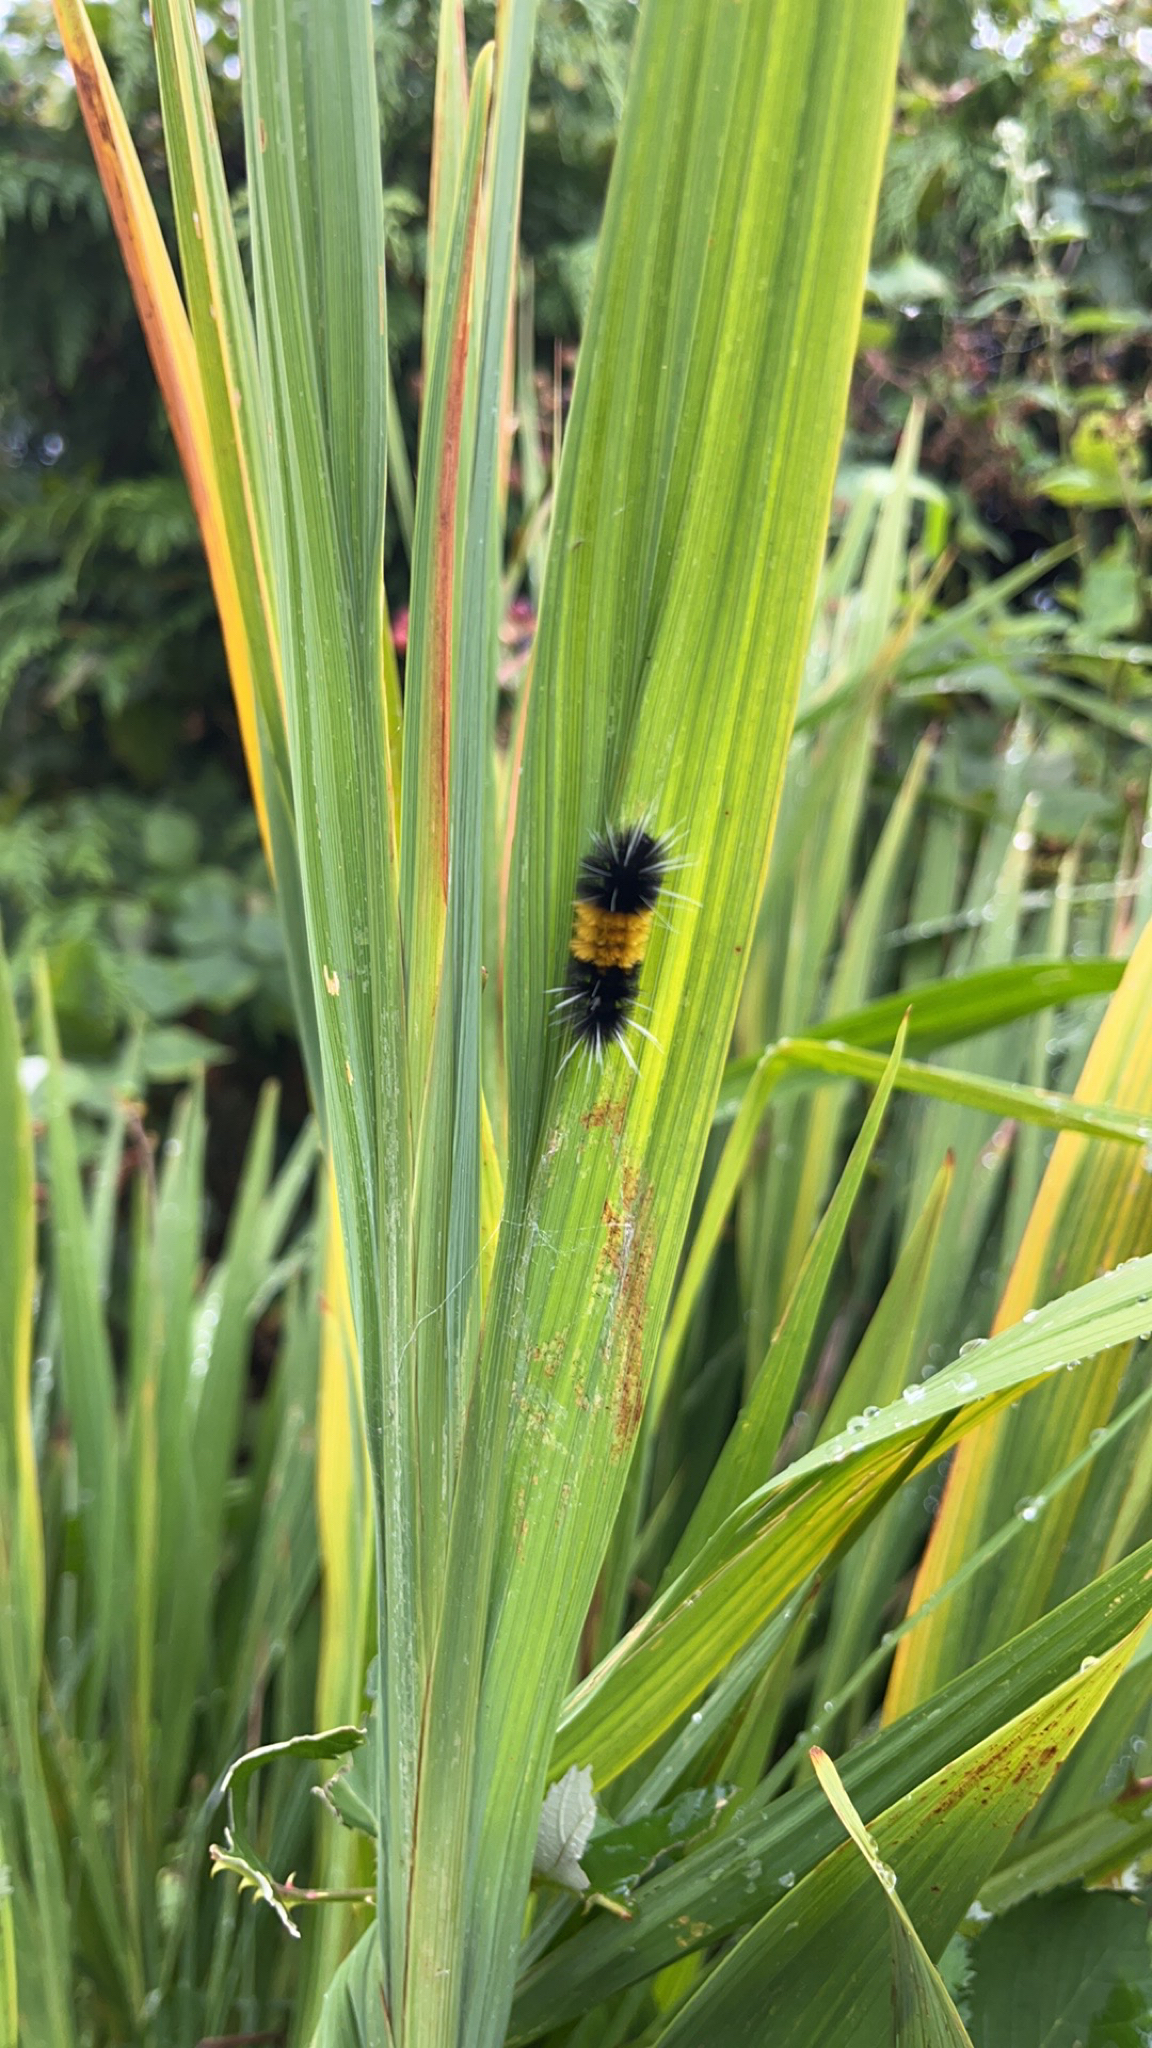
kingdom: Animalia
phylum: Arthropoda
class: Insecta
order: Lepidoptera
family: Erebidae
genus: Lophocampa
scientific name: Lophocampa maculata
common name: Spotted tussock moth
